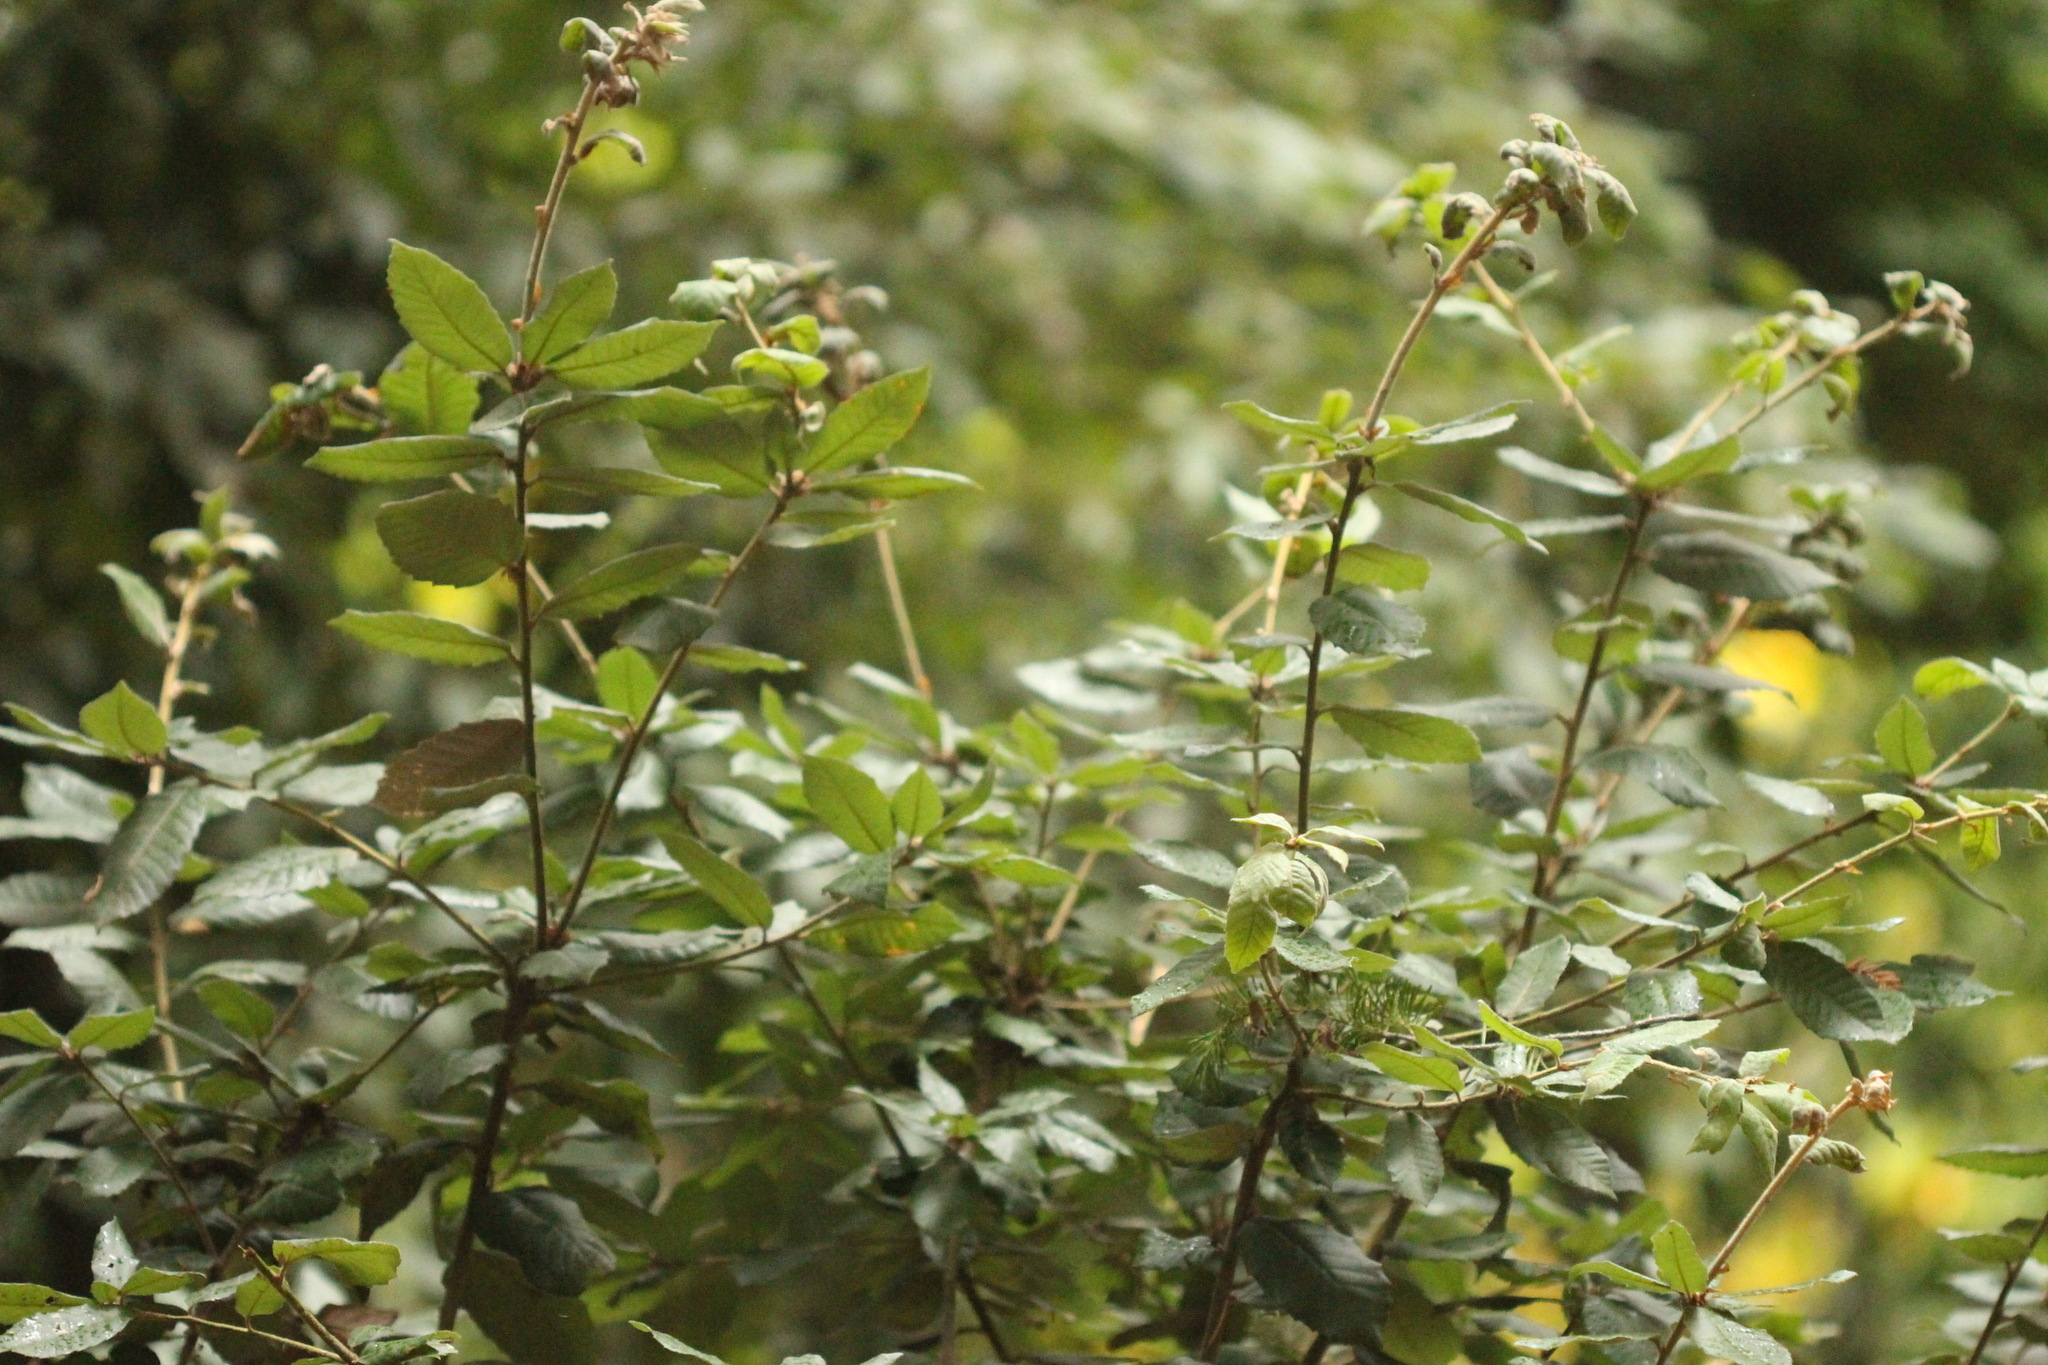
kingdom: Plantae
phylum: Tracheophyta
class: Magnoliopsida
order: Fagales
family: Fagaceae
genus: Notholithocarpus
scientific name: Notholithocarpus densiflorus
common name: Tan bark oak
